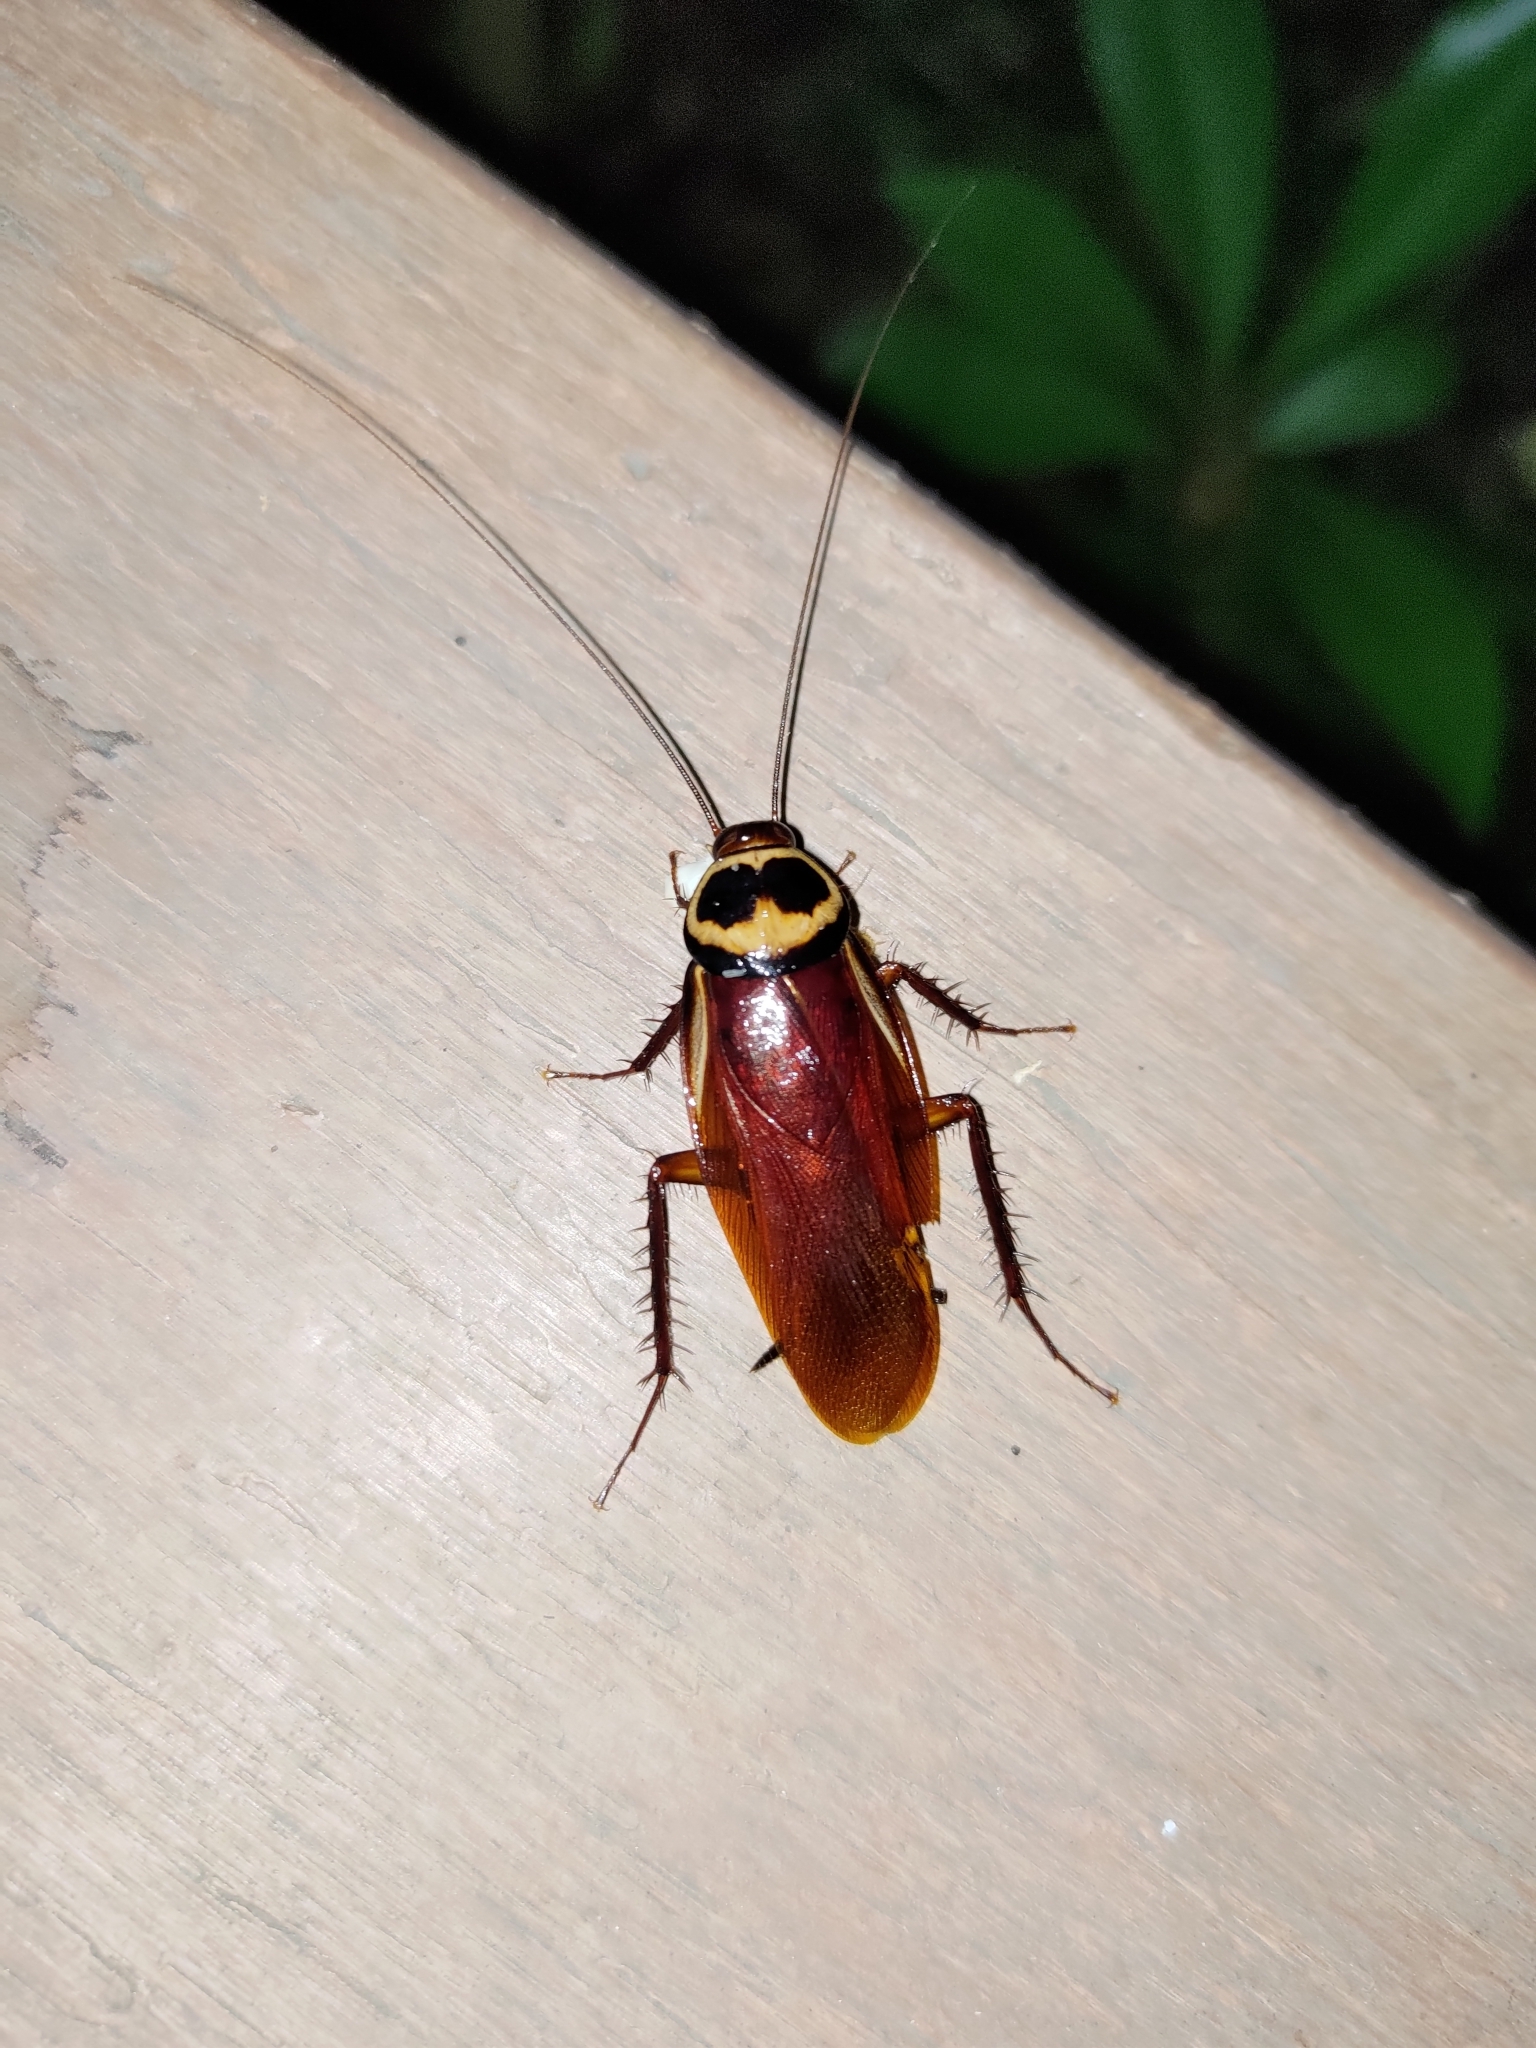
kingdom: Animalia
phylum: Arthropoda
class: Insecta
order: Blattodea
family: Blattidae
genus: Periplaneta
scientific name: Periplaneta australasiae
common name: Australian cockroach
